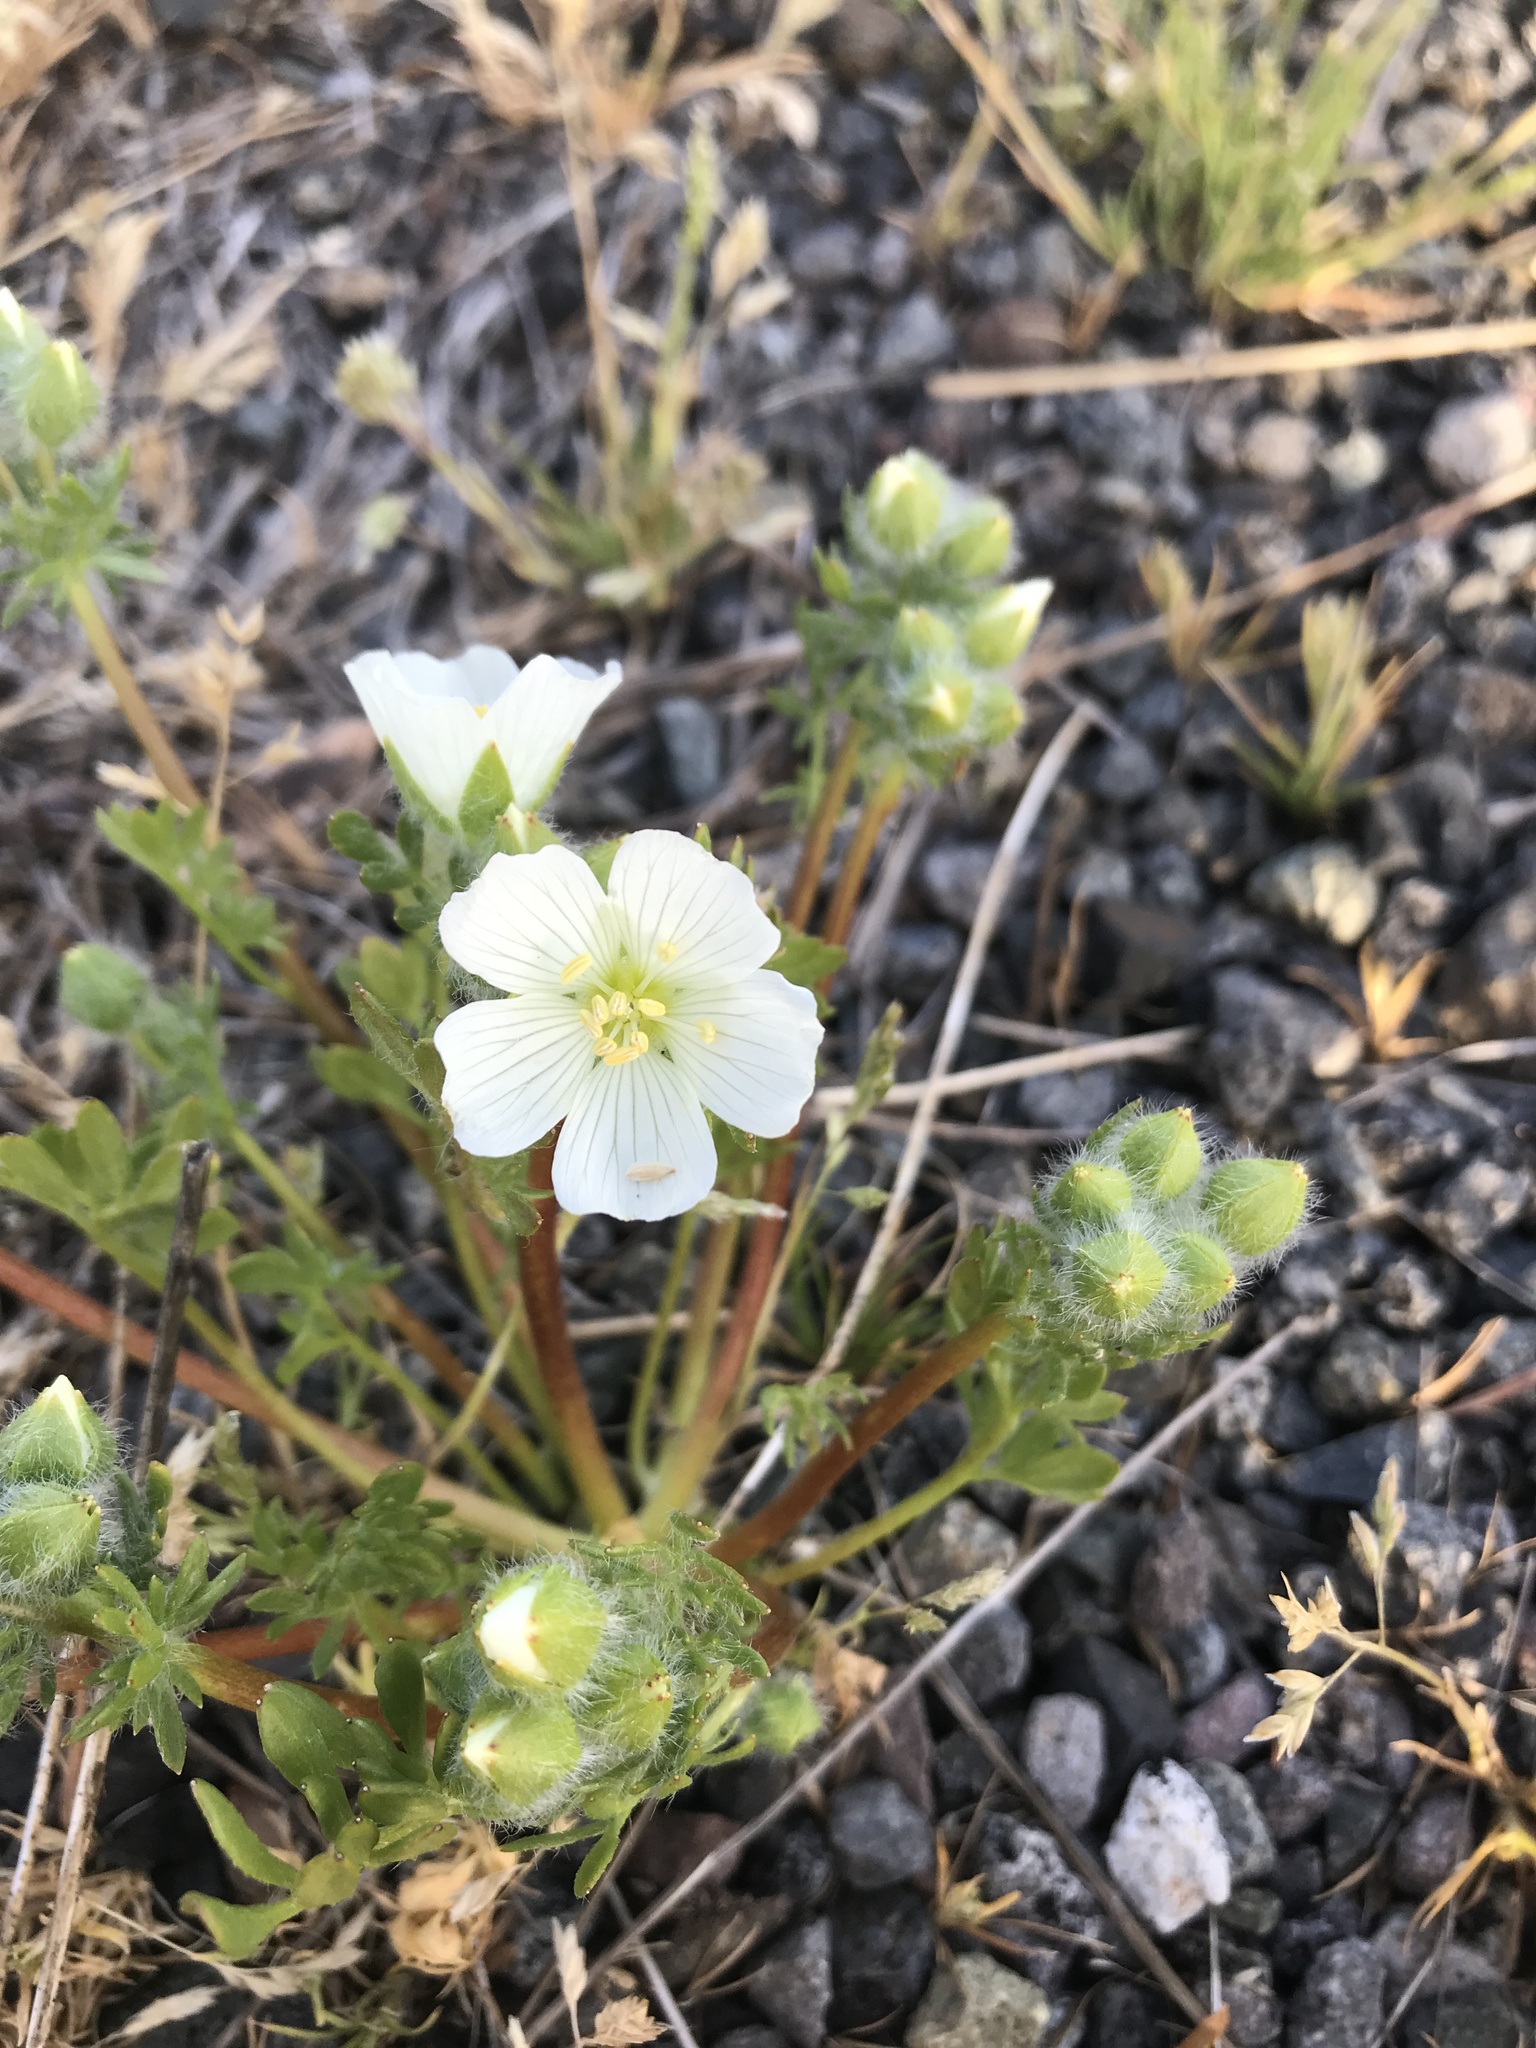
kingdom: Plantae
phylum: Tracheophyta
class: Magnoliopsida
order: Brassicales
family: Limnanthaceae
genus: Limnanthes
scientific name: Limnanthes alba
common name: Meadowfoam
